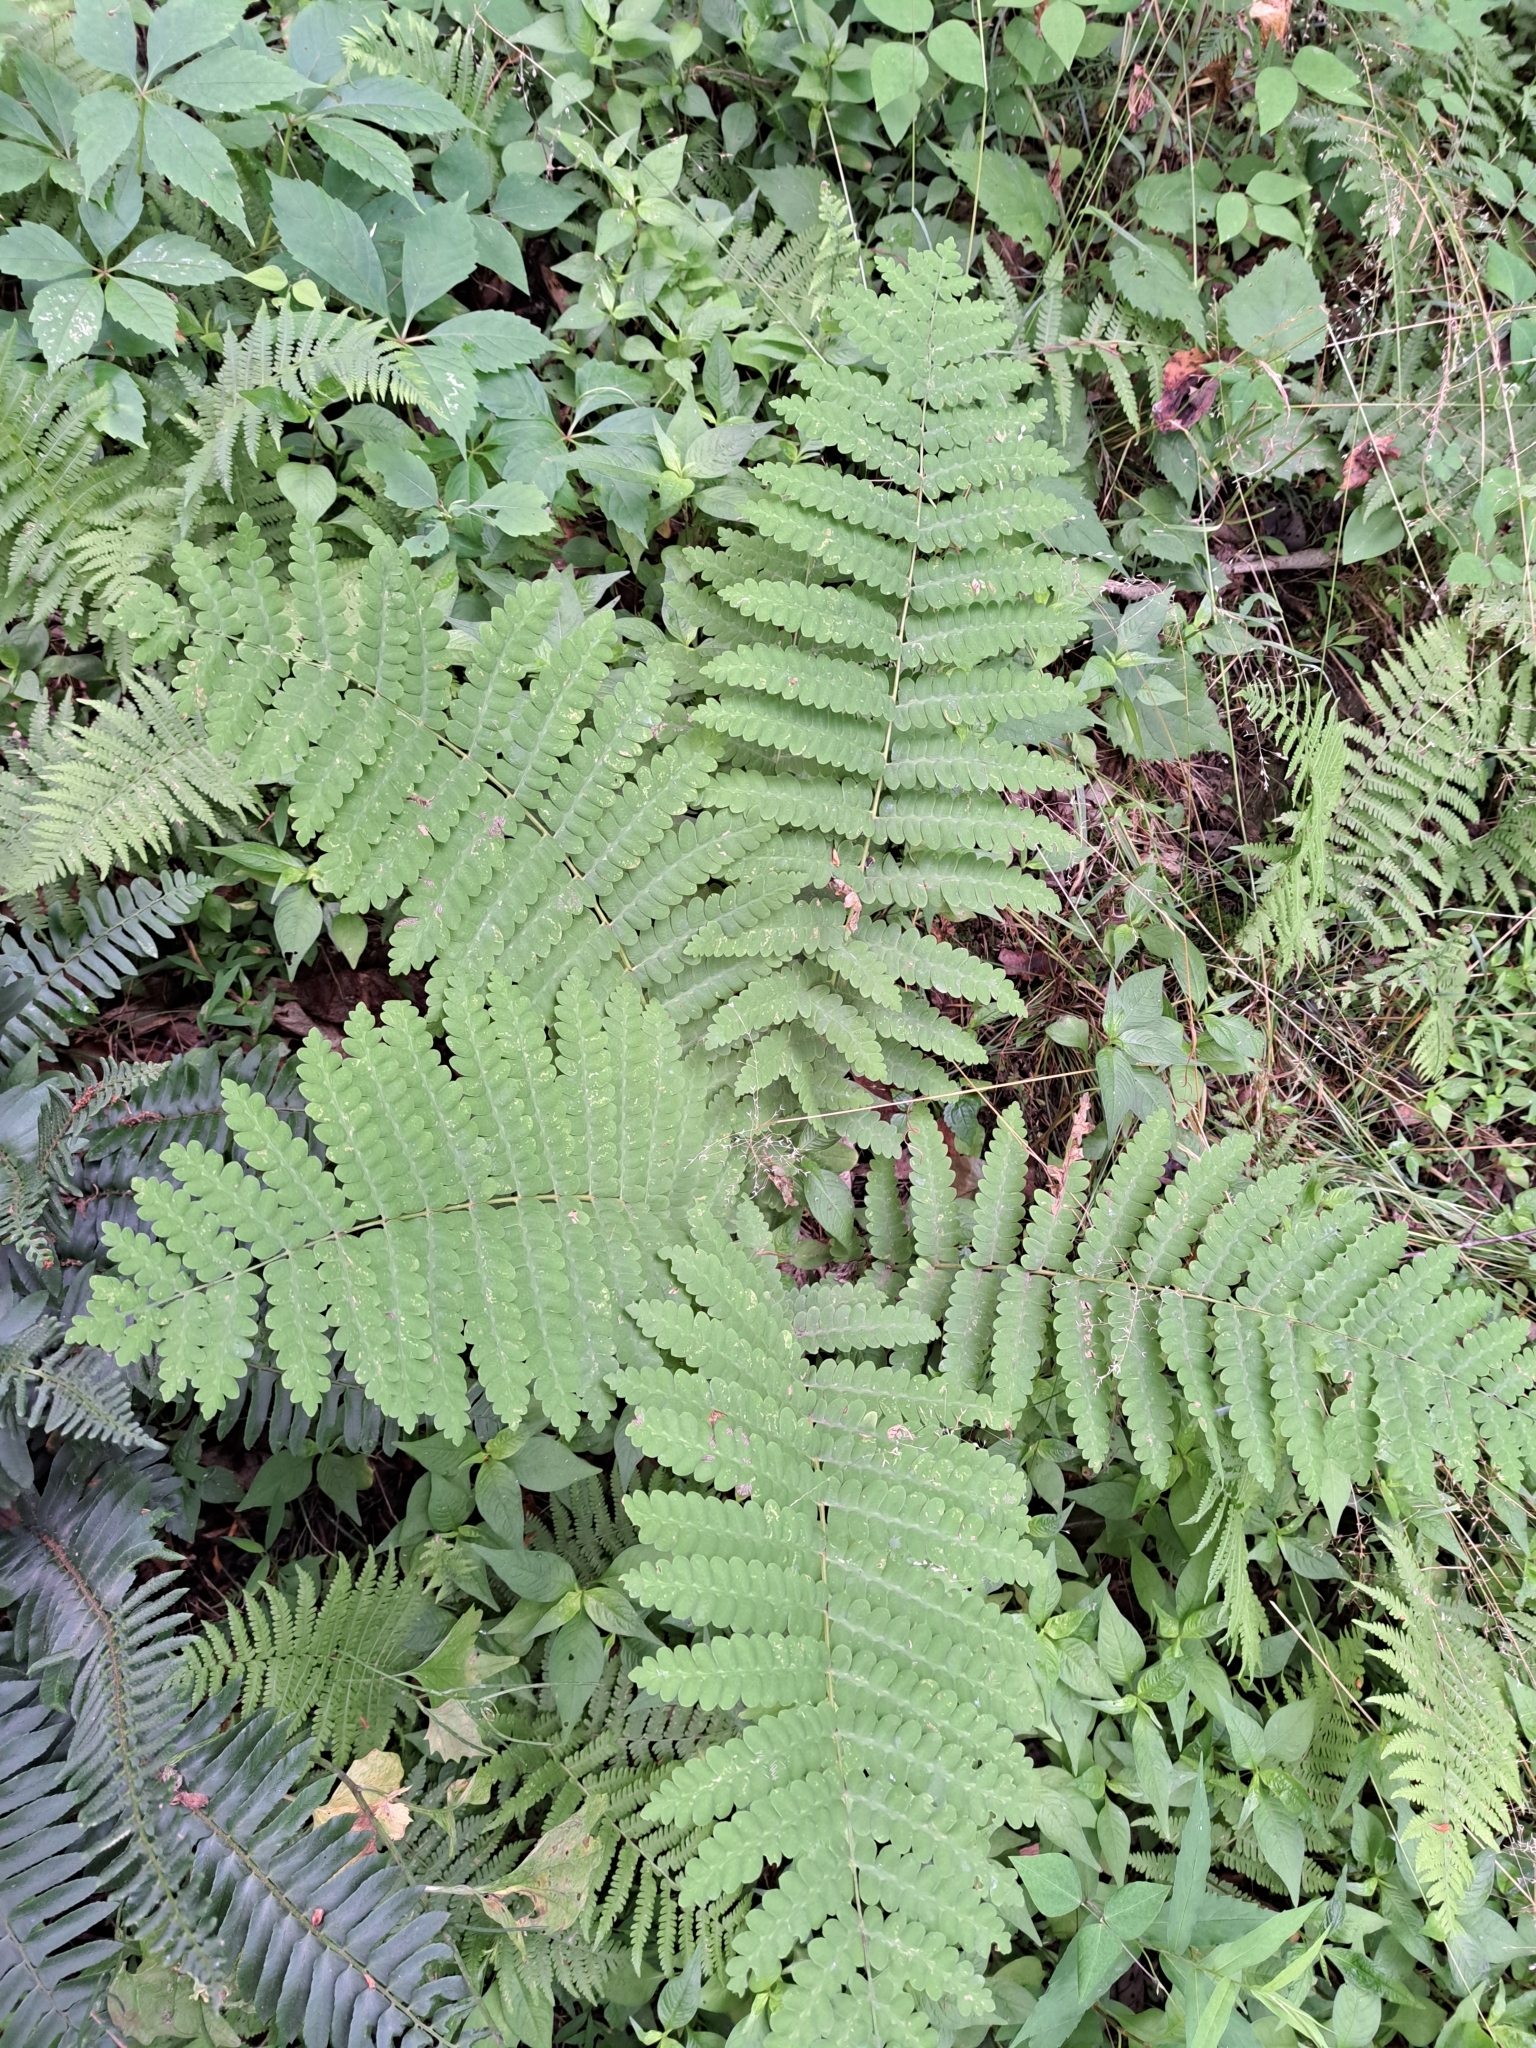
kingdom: Plantae
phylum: Tracheophyta
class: Polypodiopsida
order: Osmundales
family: Osmundaceae
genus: Claytosmunda
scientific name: Claytosmunda claytoniana
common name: Clayton's fern
